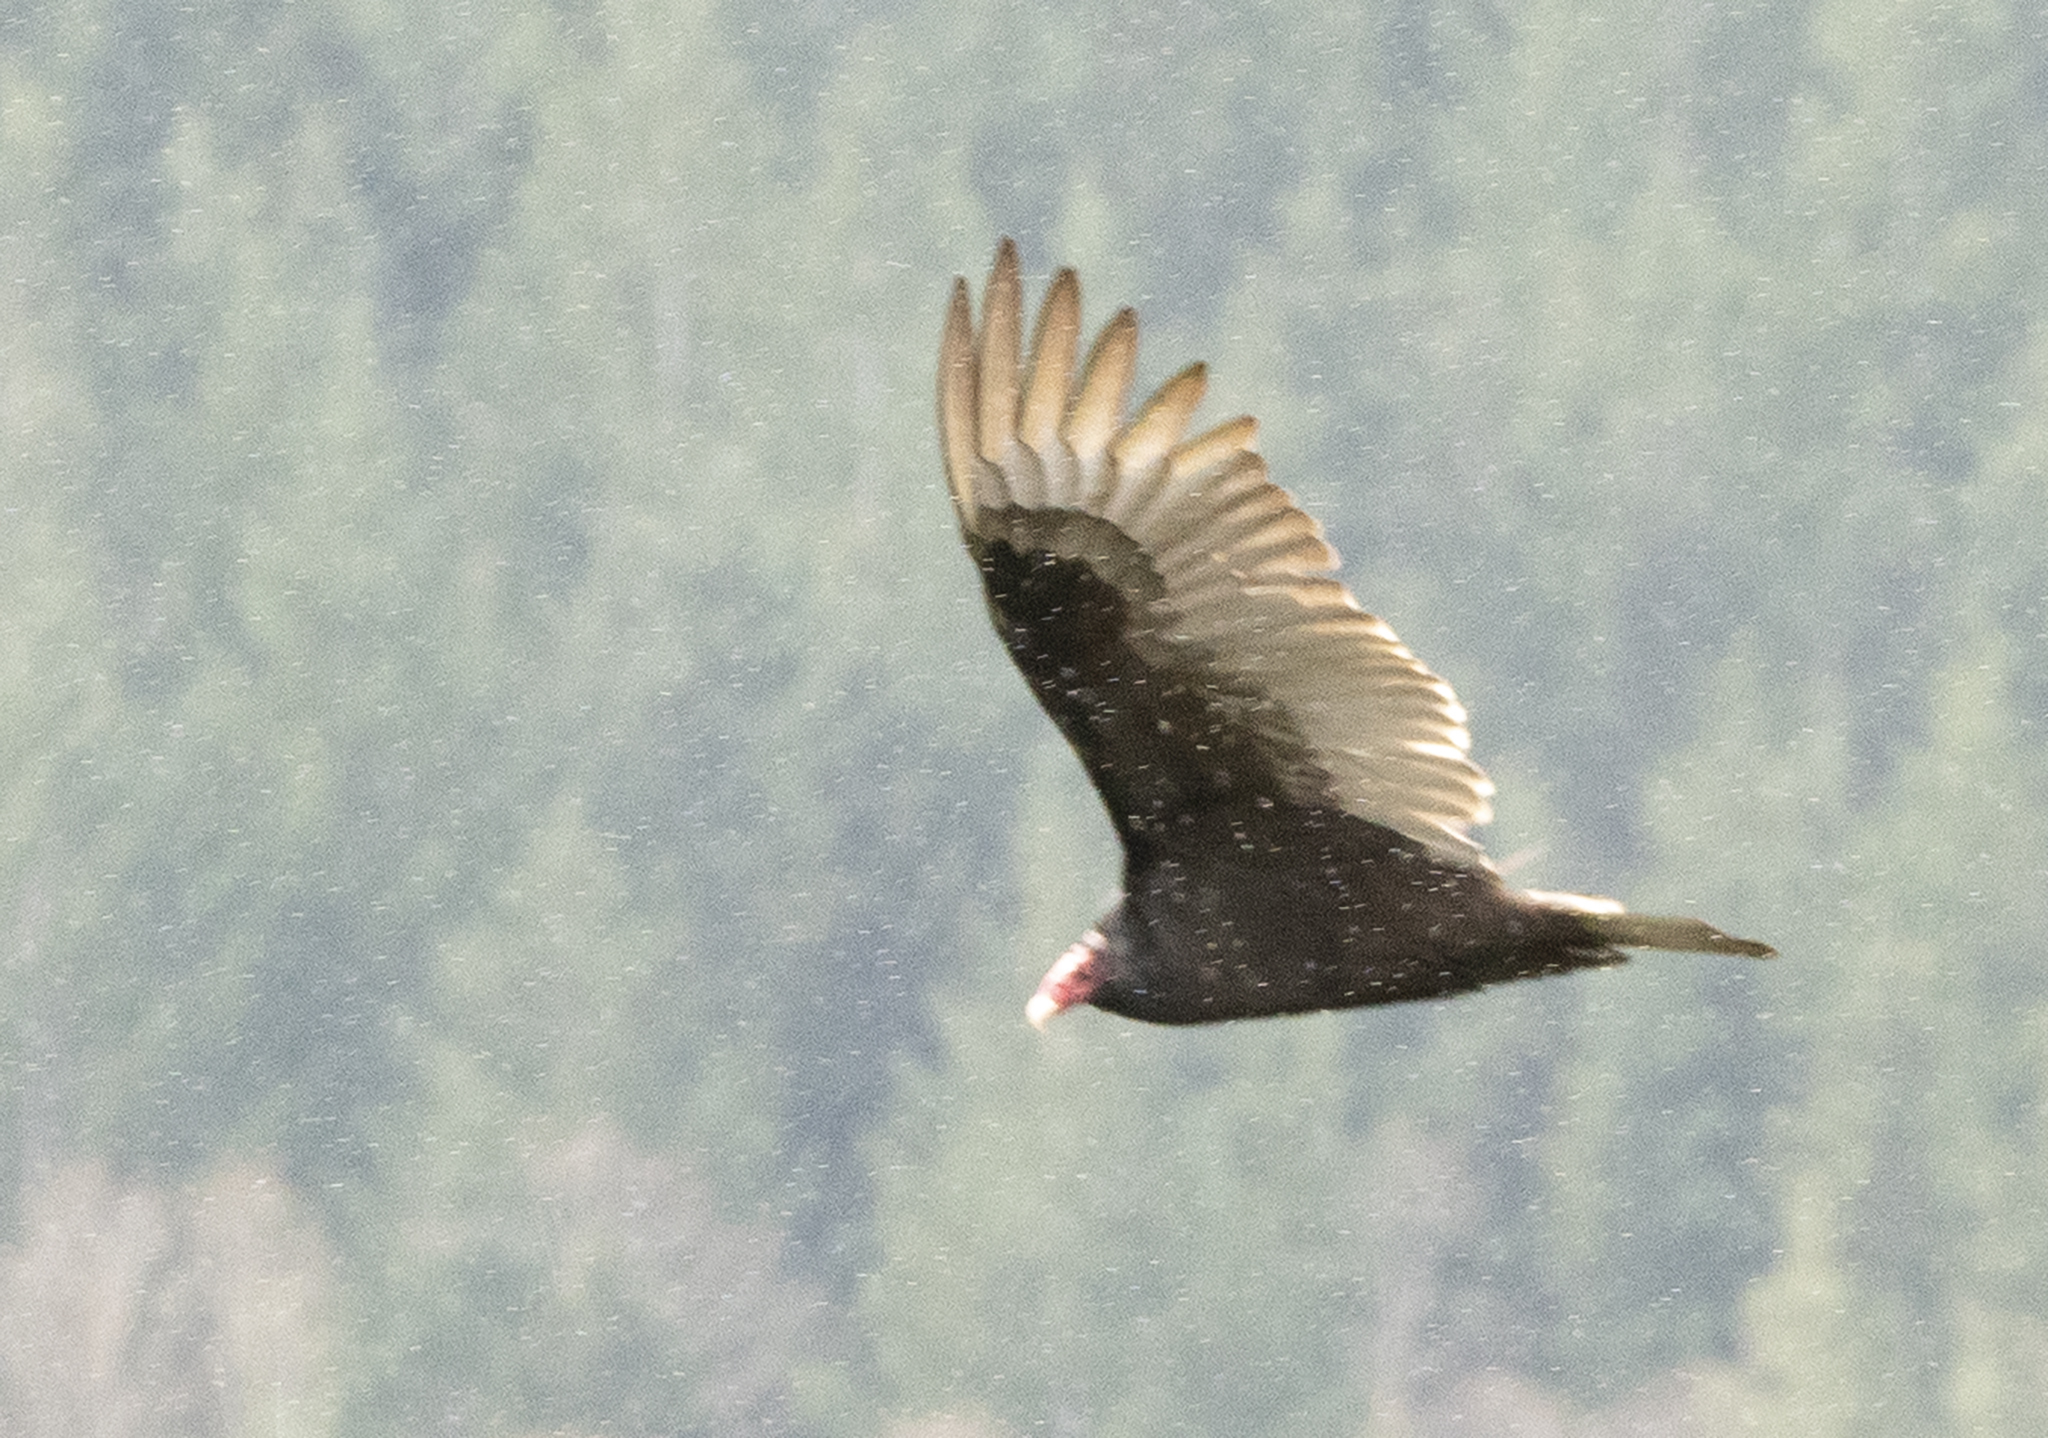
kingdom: Animalia
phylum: Chordata
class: Aves
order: Accipitriformes
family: Cathartidae
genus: Cathartes
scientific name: Cathartes aura
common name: Turkey vulture
